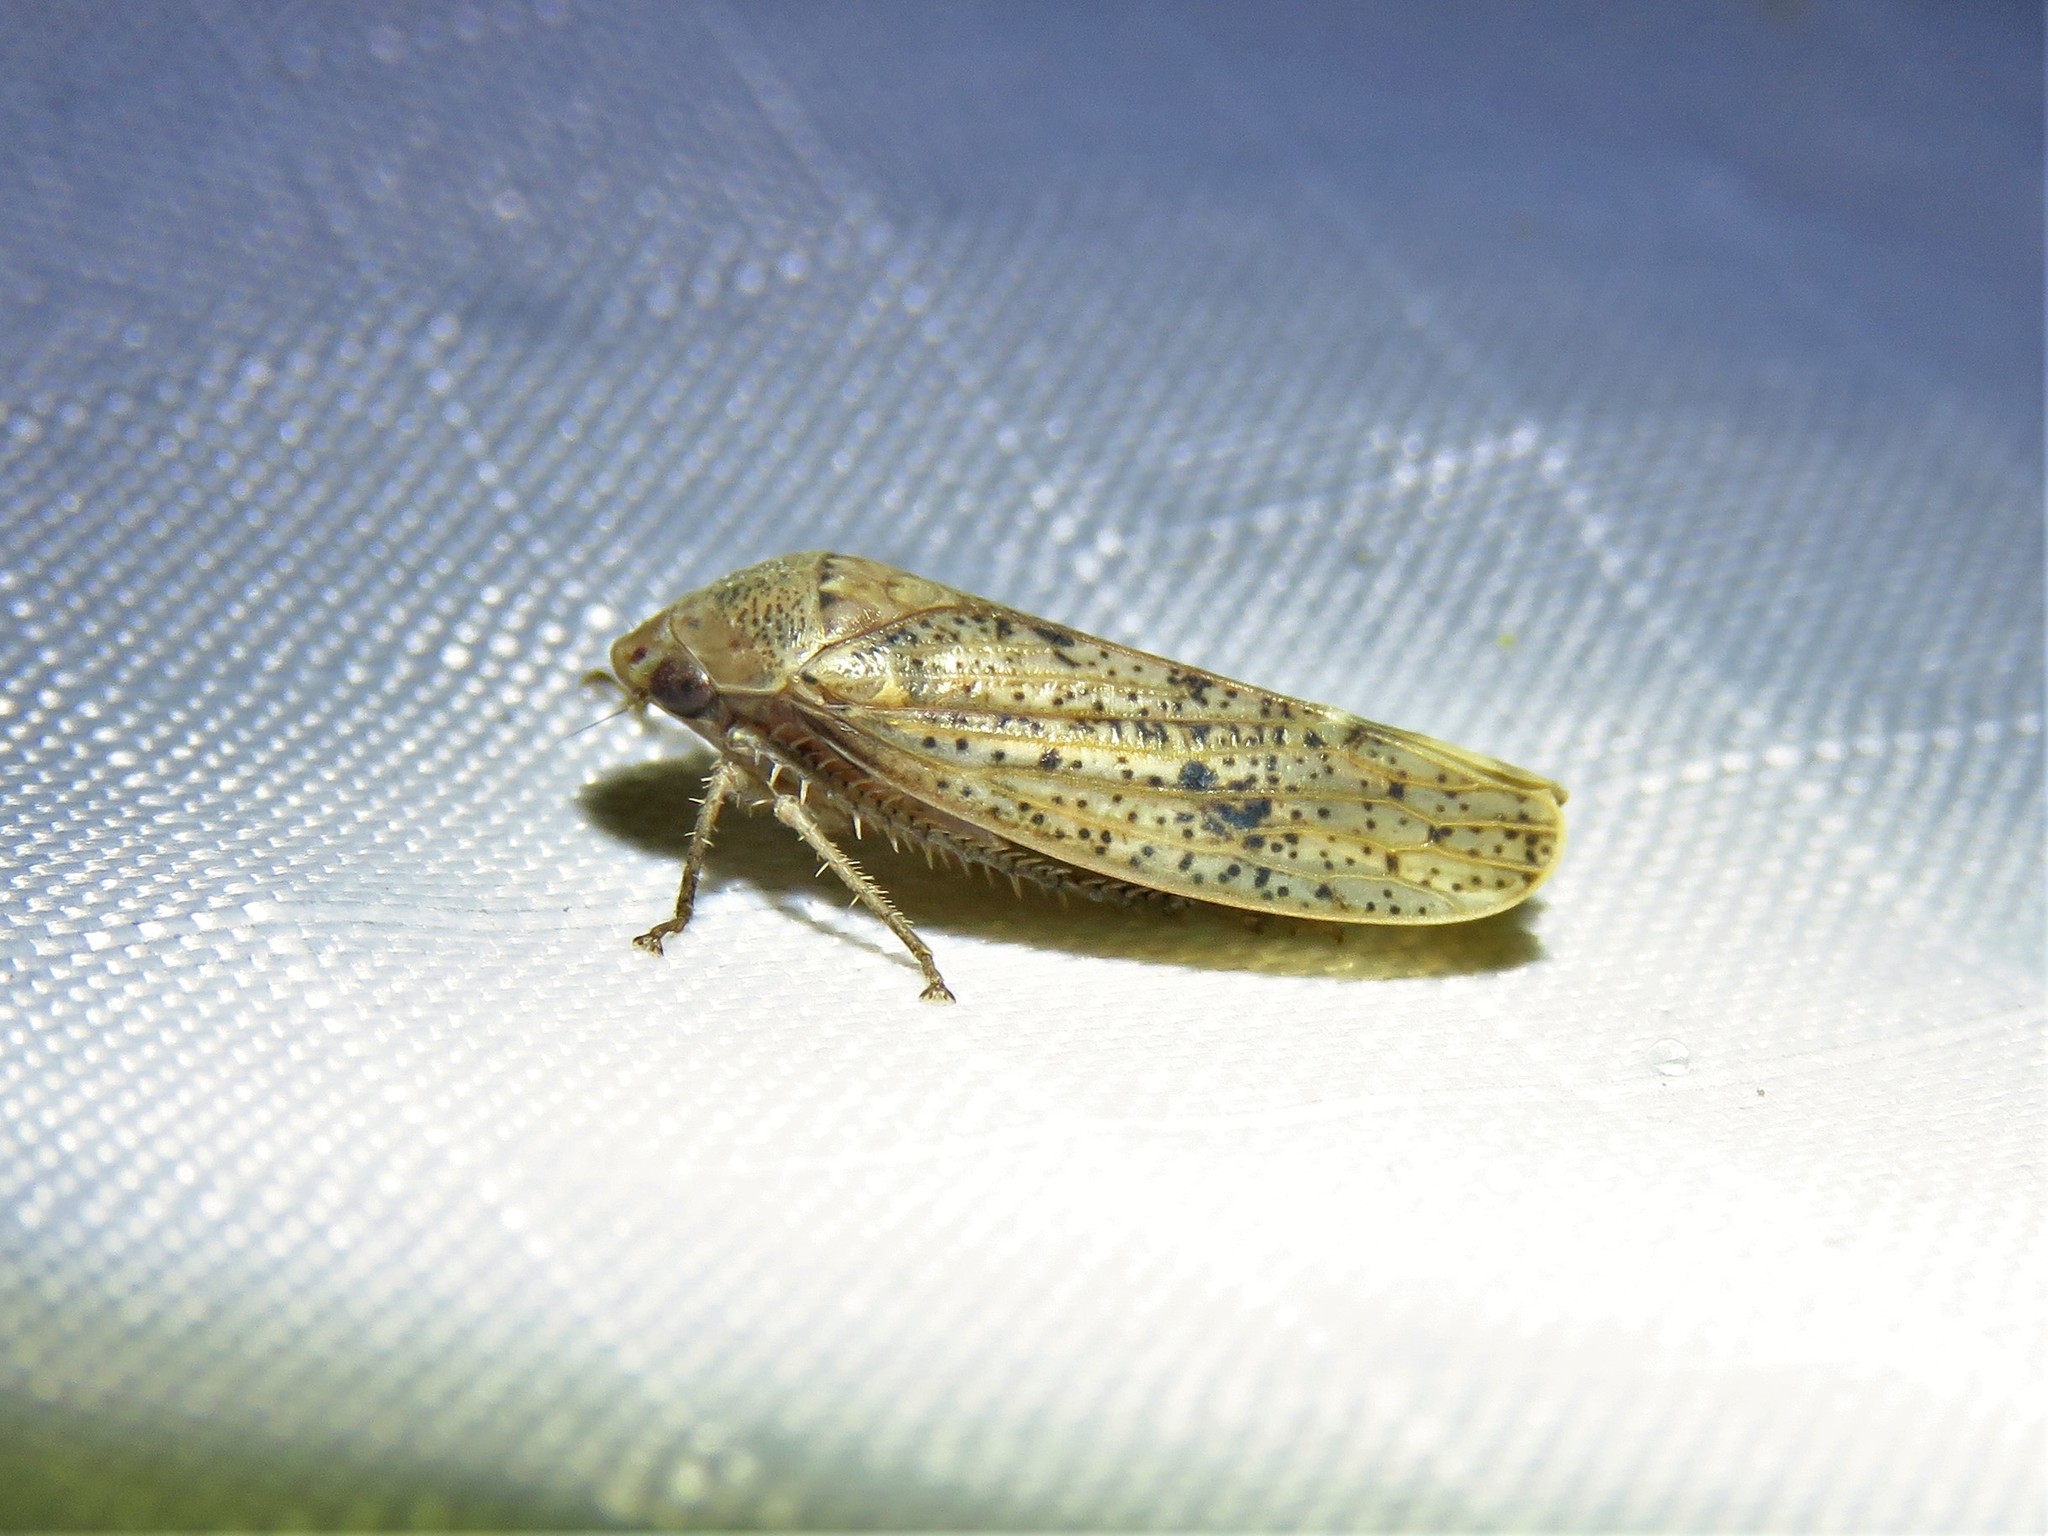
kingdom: Animalia
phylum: Arthropoda
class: Insecta
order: Hemiptera
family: Cicadellidae
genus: Ponana
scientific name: Ponana puncticollis
